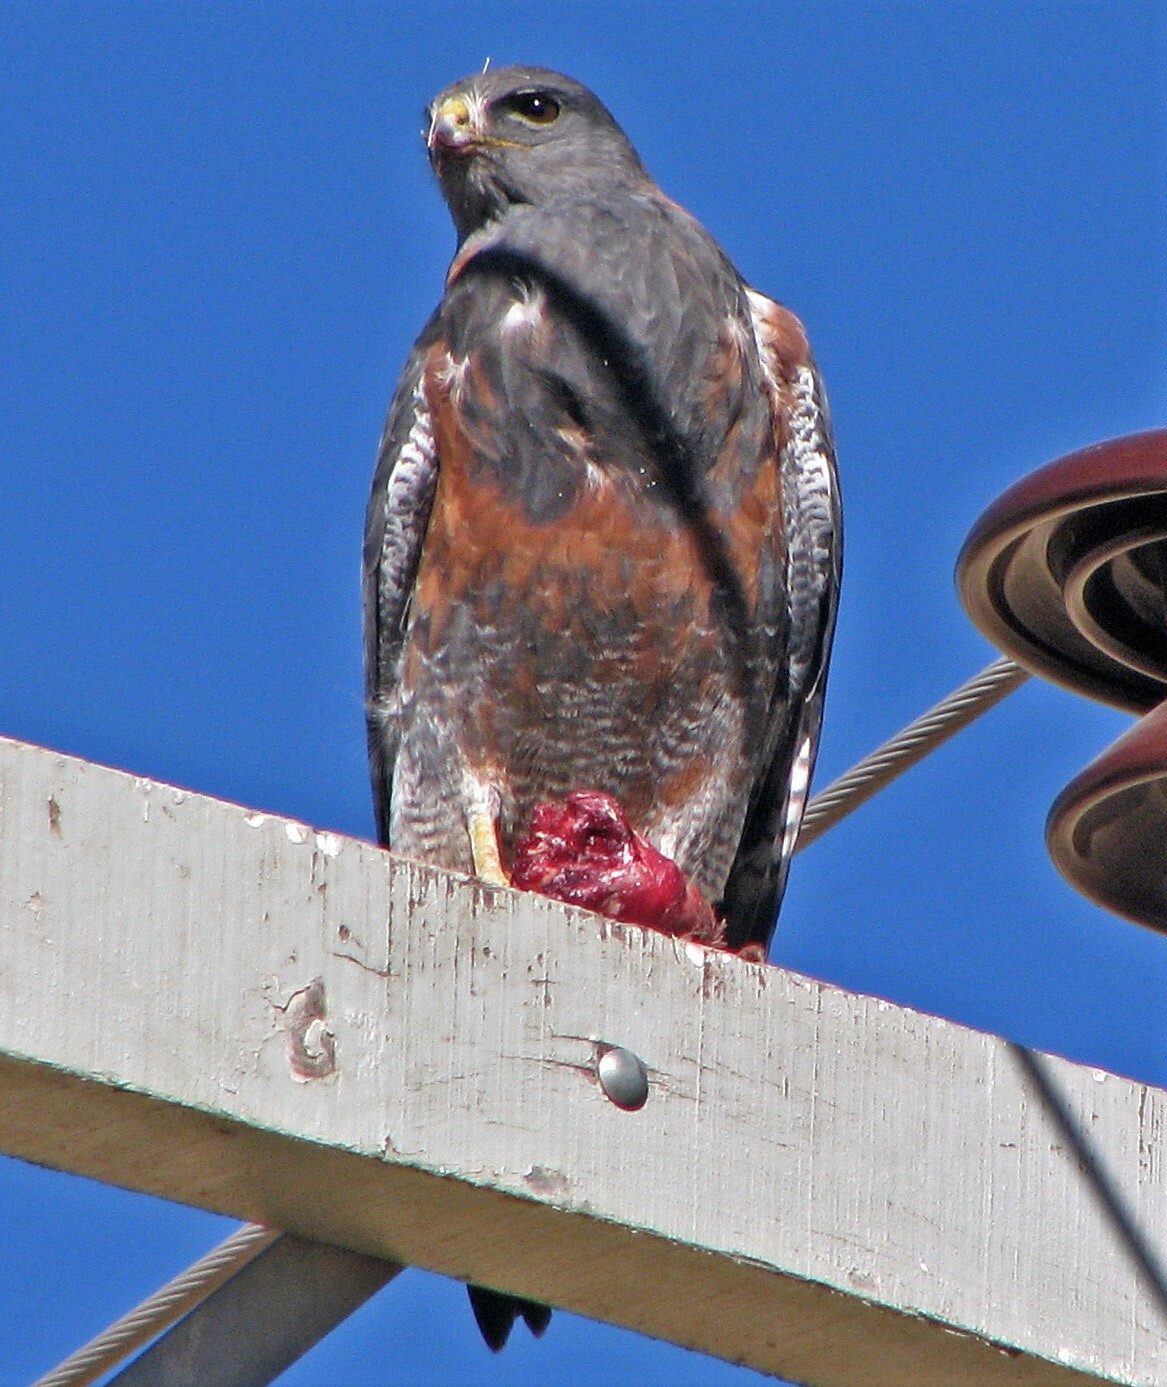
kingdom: Animalia
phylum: Chordata
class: Aves
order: Accipitriformes
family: Accipitridae
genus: Buteo
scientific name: Buteo polyosoma
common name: Variable hawk
